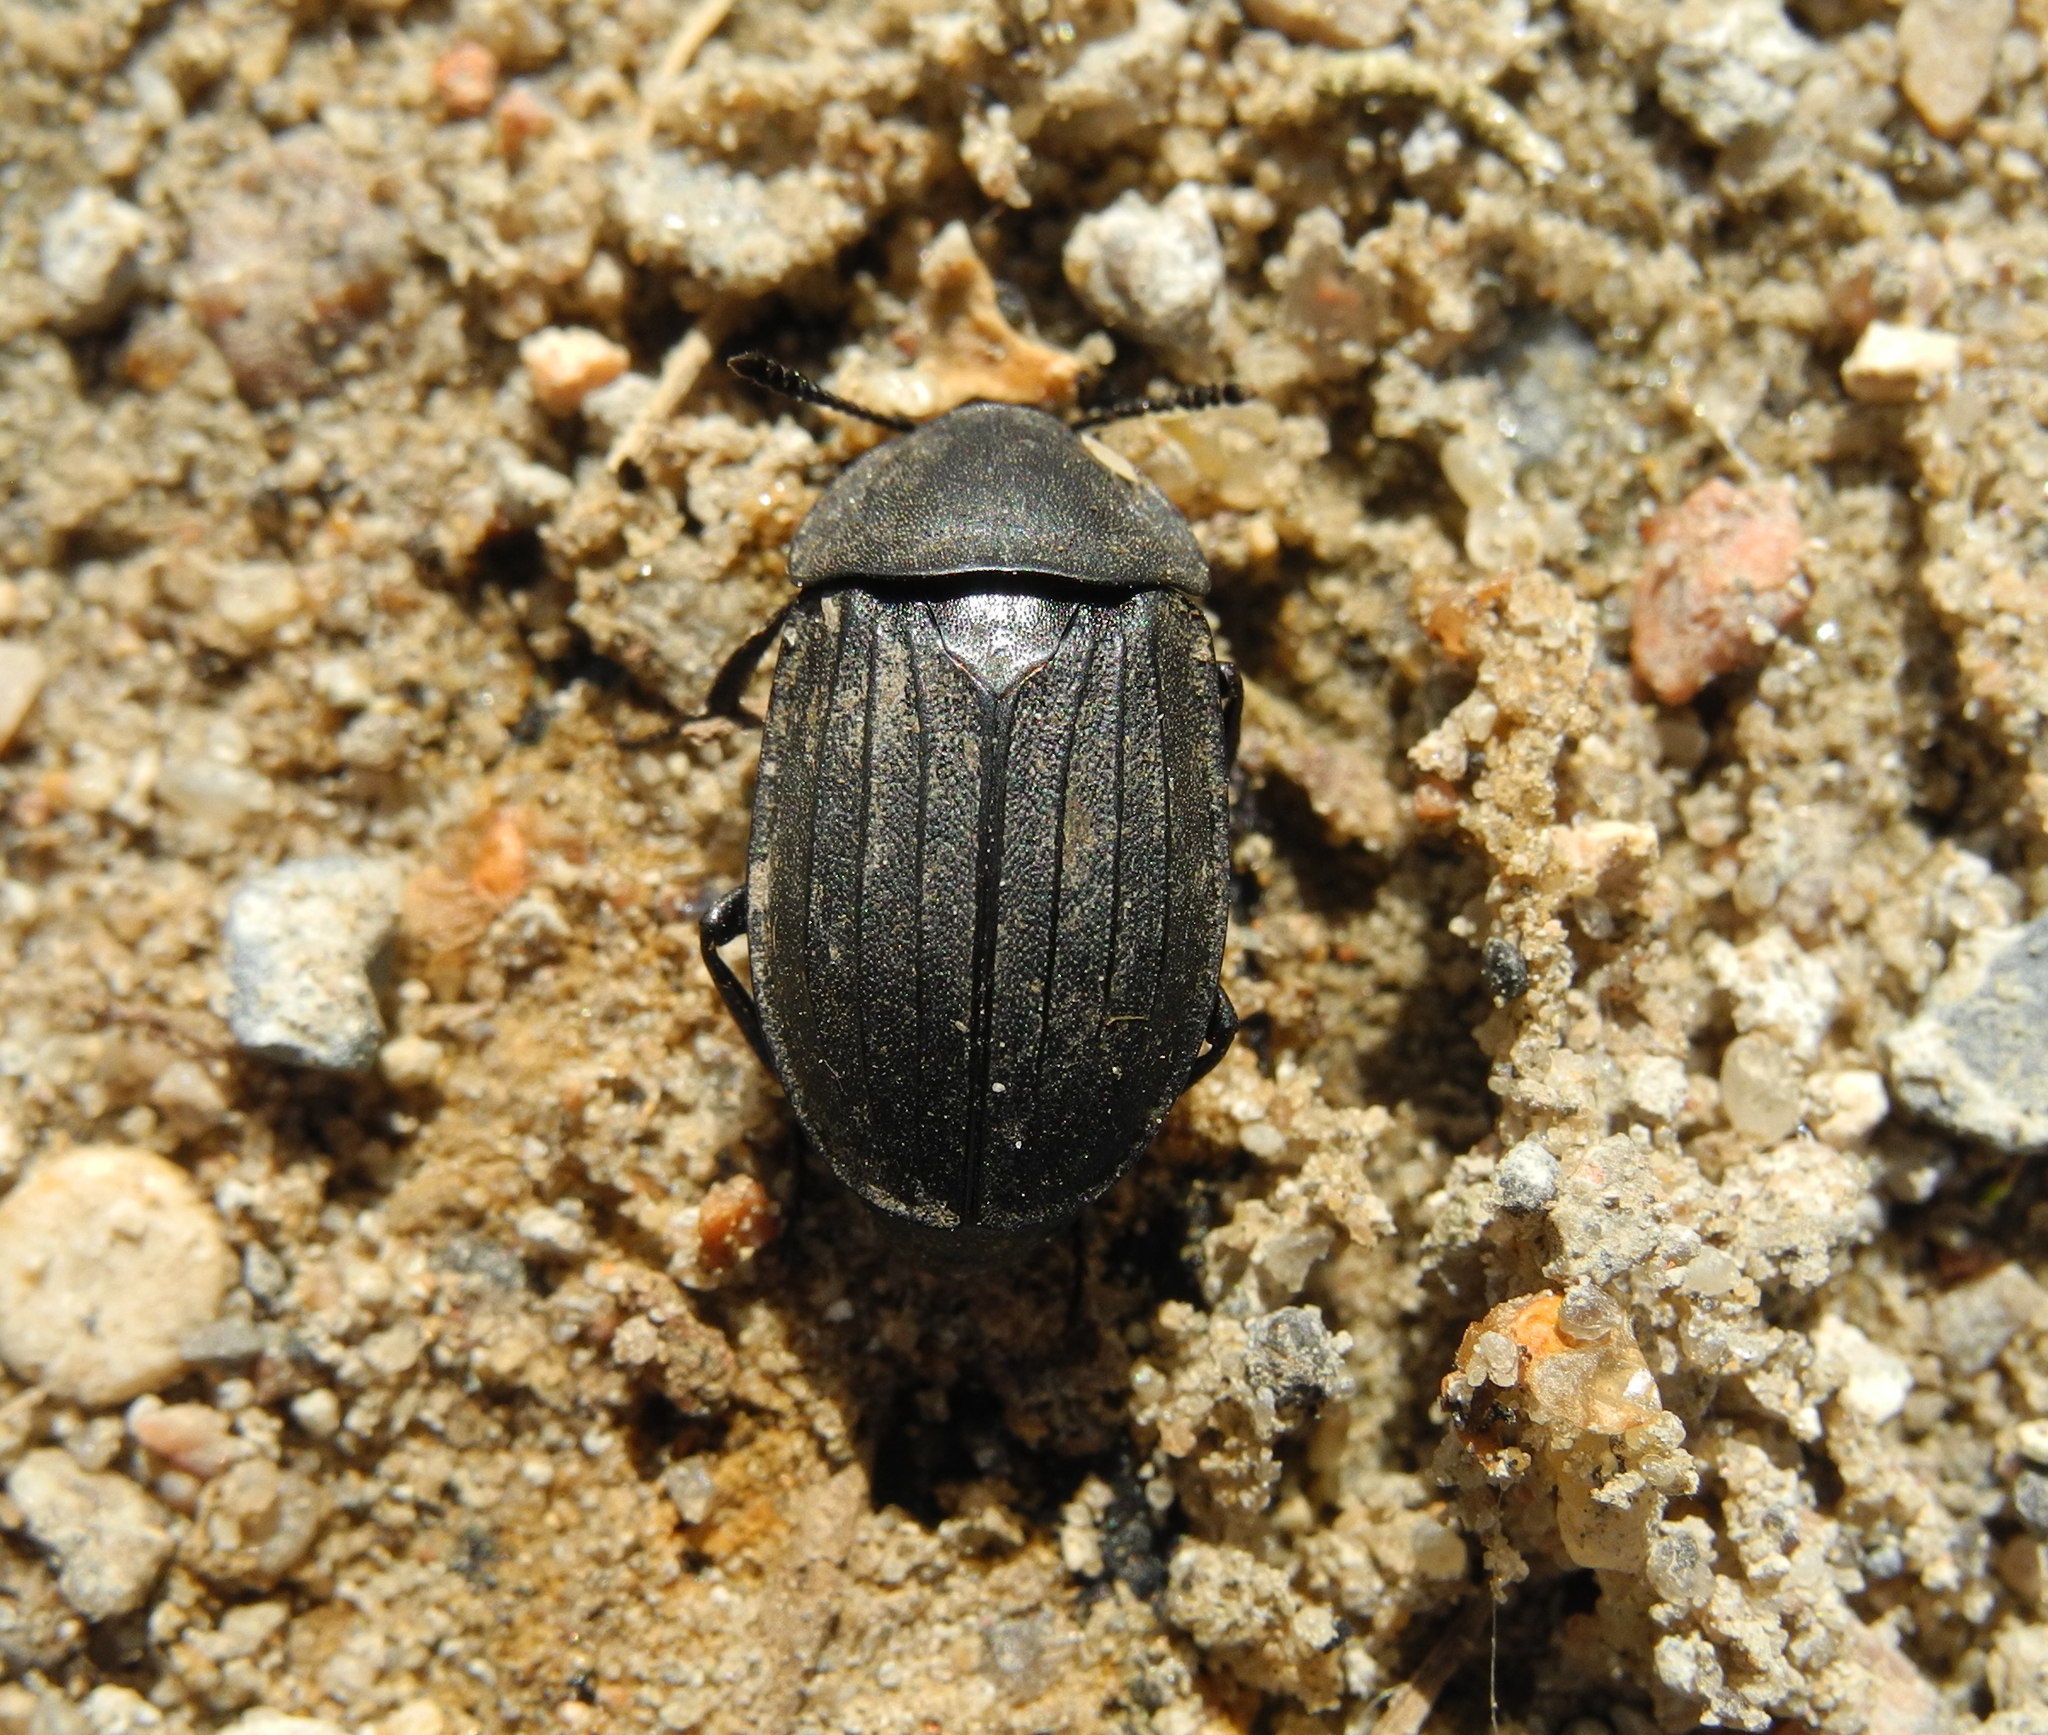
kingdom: Animalia
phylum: Arthropoda
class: Insecta
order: Coleoptera
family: Staphylinidae
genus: Silpha
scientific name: Silpha tristis
